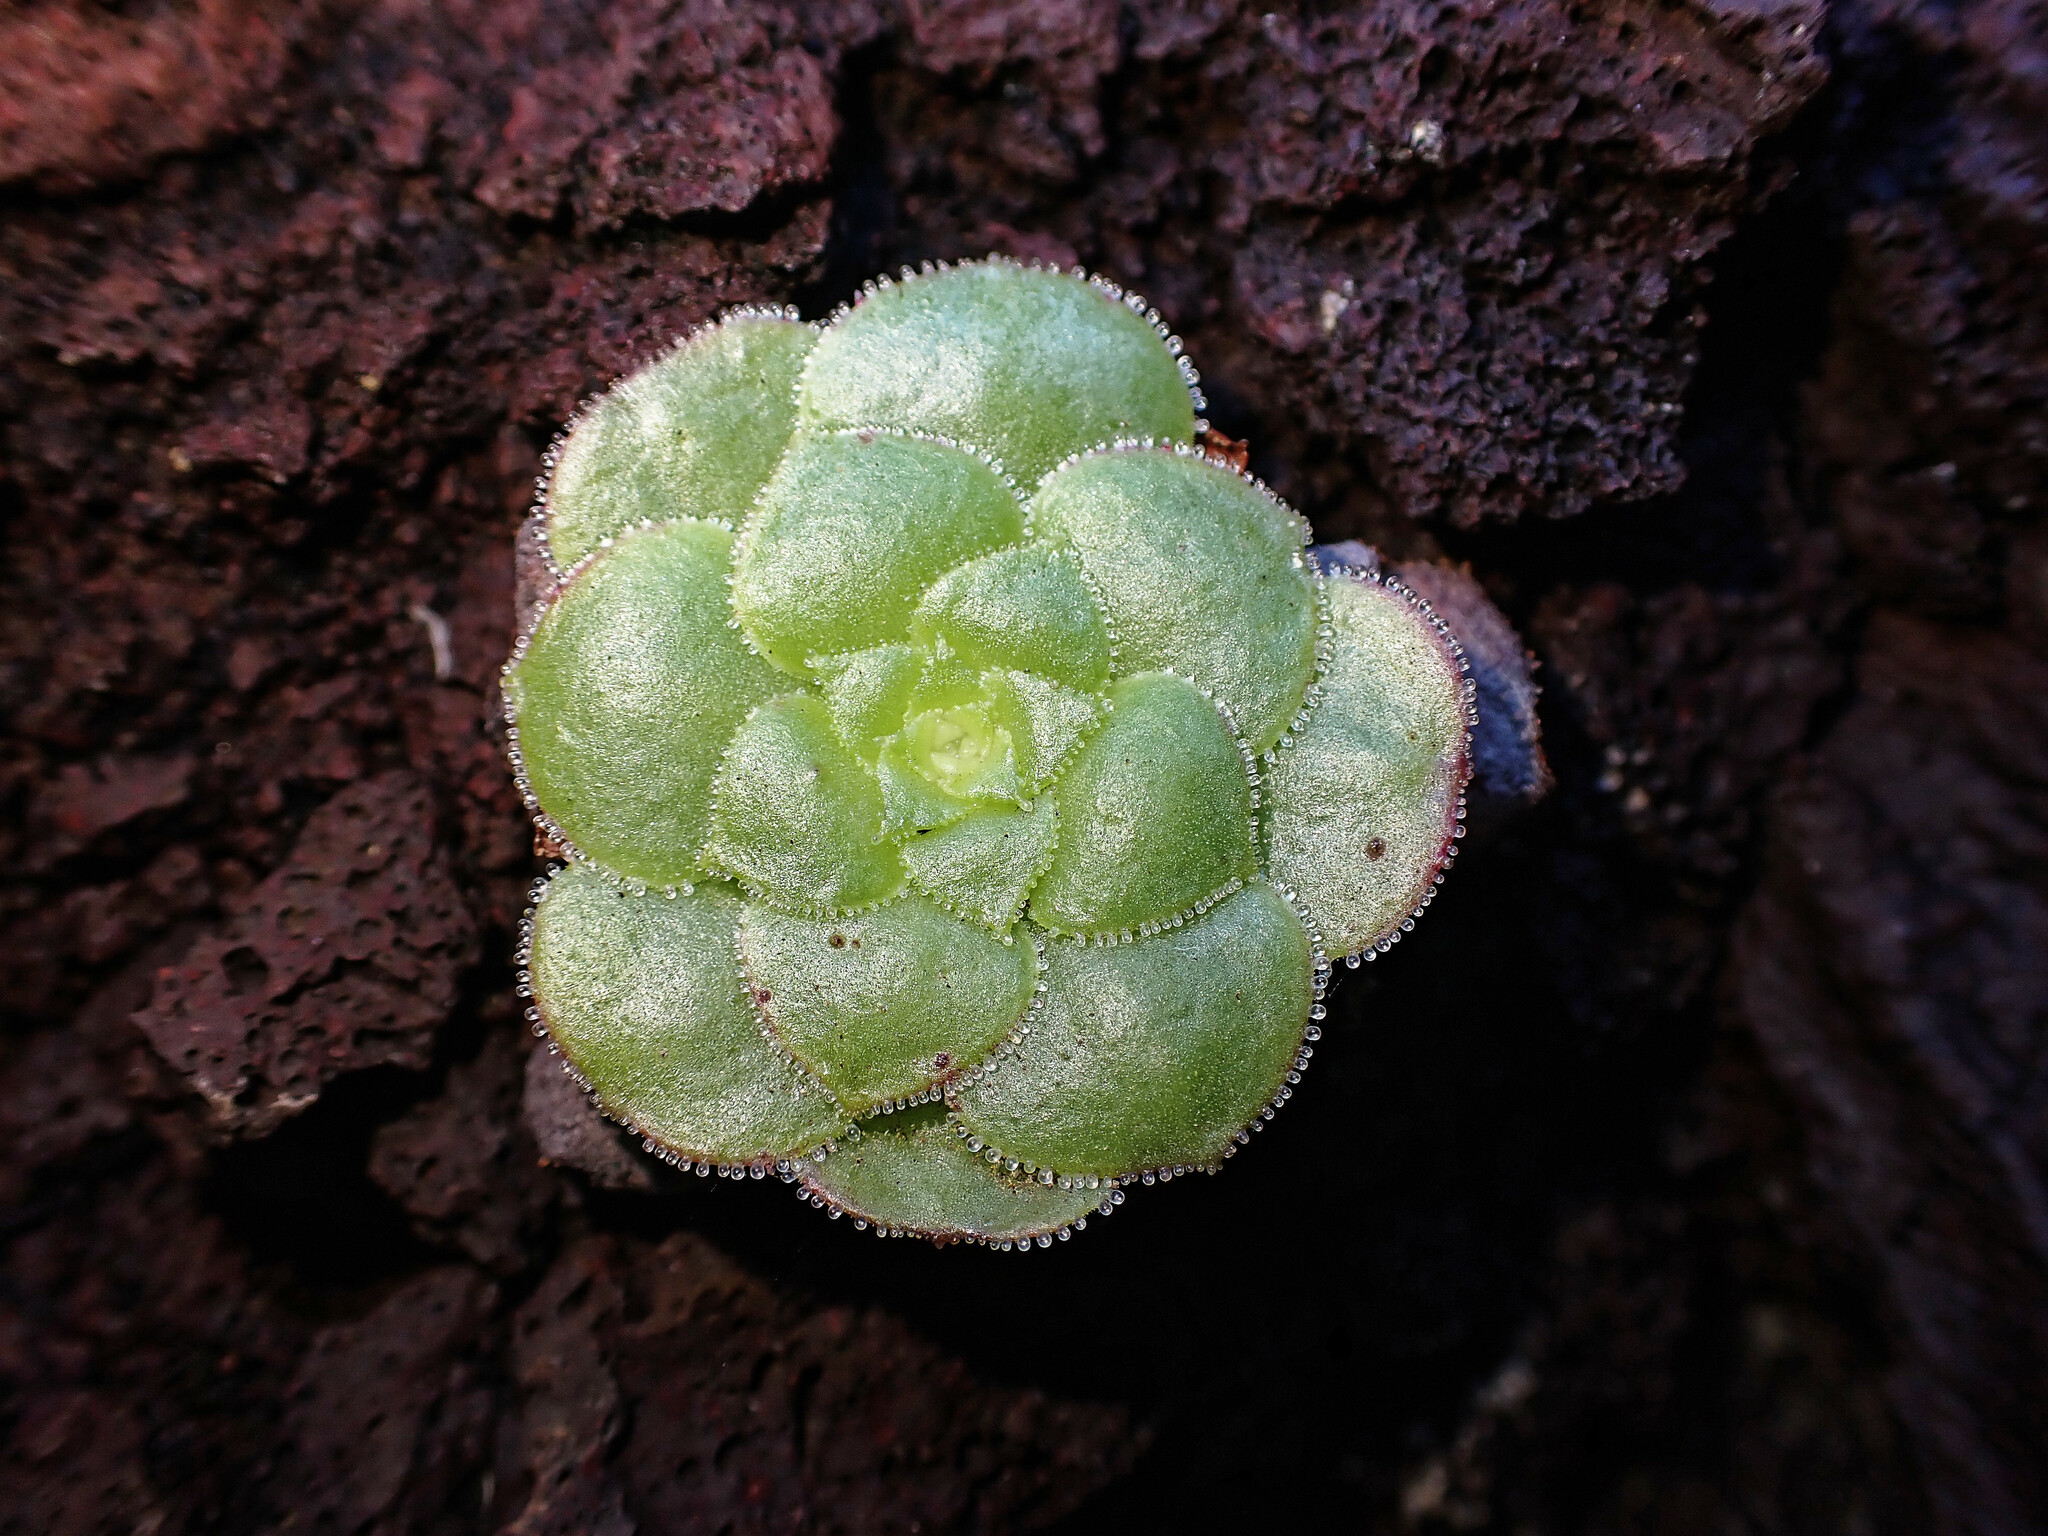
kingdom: Plantae
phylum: Tracheophyta
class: Magnoliopsida
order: Saxifragales
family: Crassulaceae
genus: Aeonium
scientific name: Aeonium glandulosum
